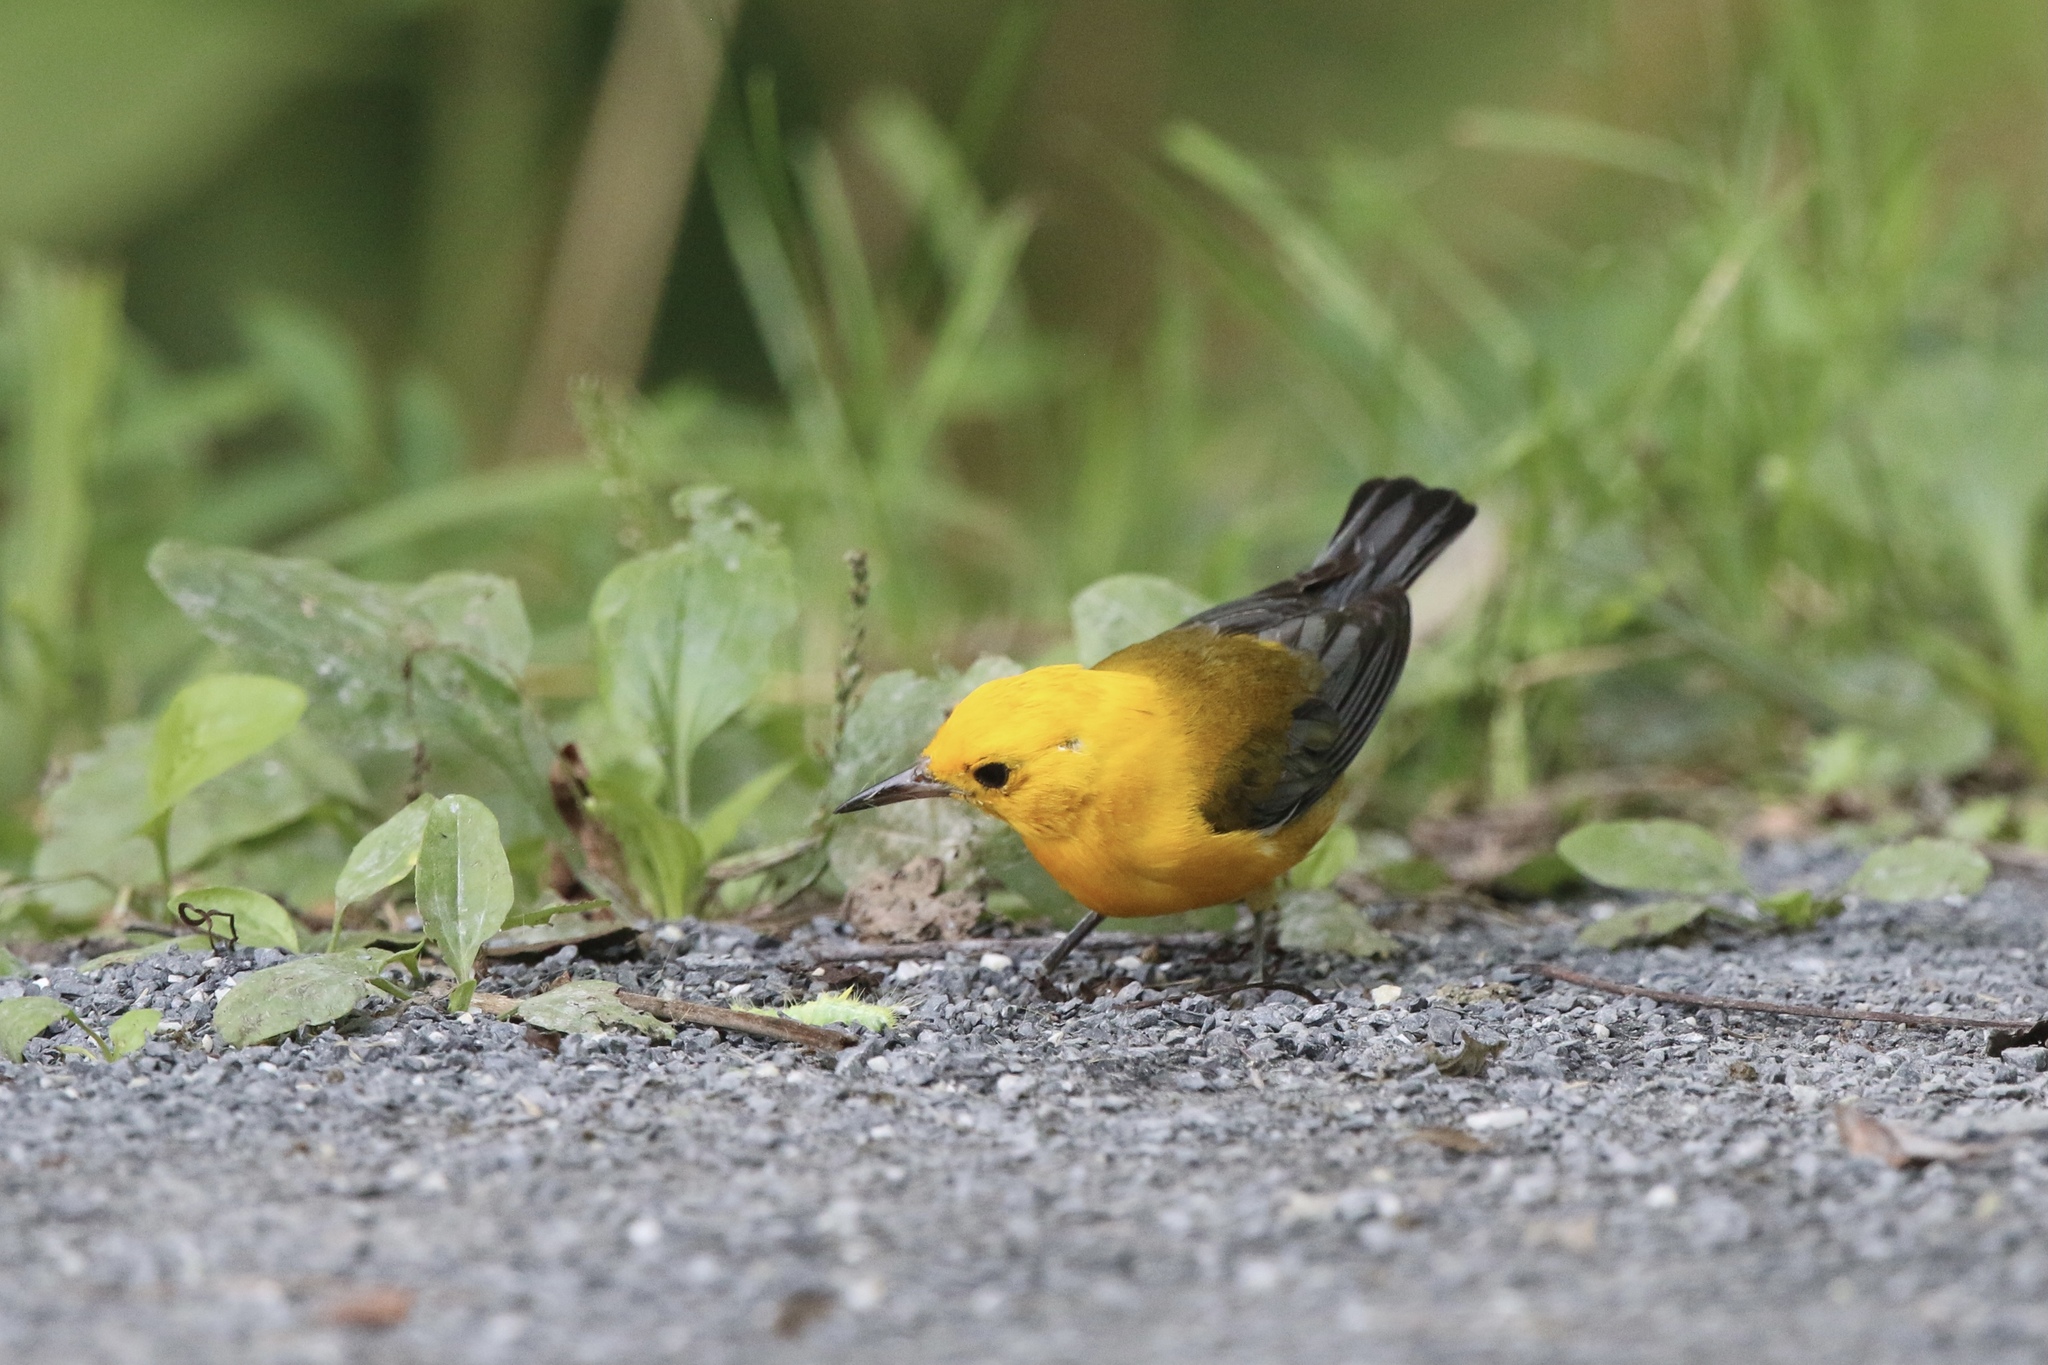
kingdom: Animalia
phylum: Chordata
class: Aves
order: Passeriformes
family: Parulidae
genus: Protonotaria
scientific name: Protonotaria citrea
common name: Prothonotary warbler
